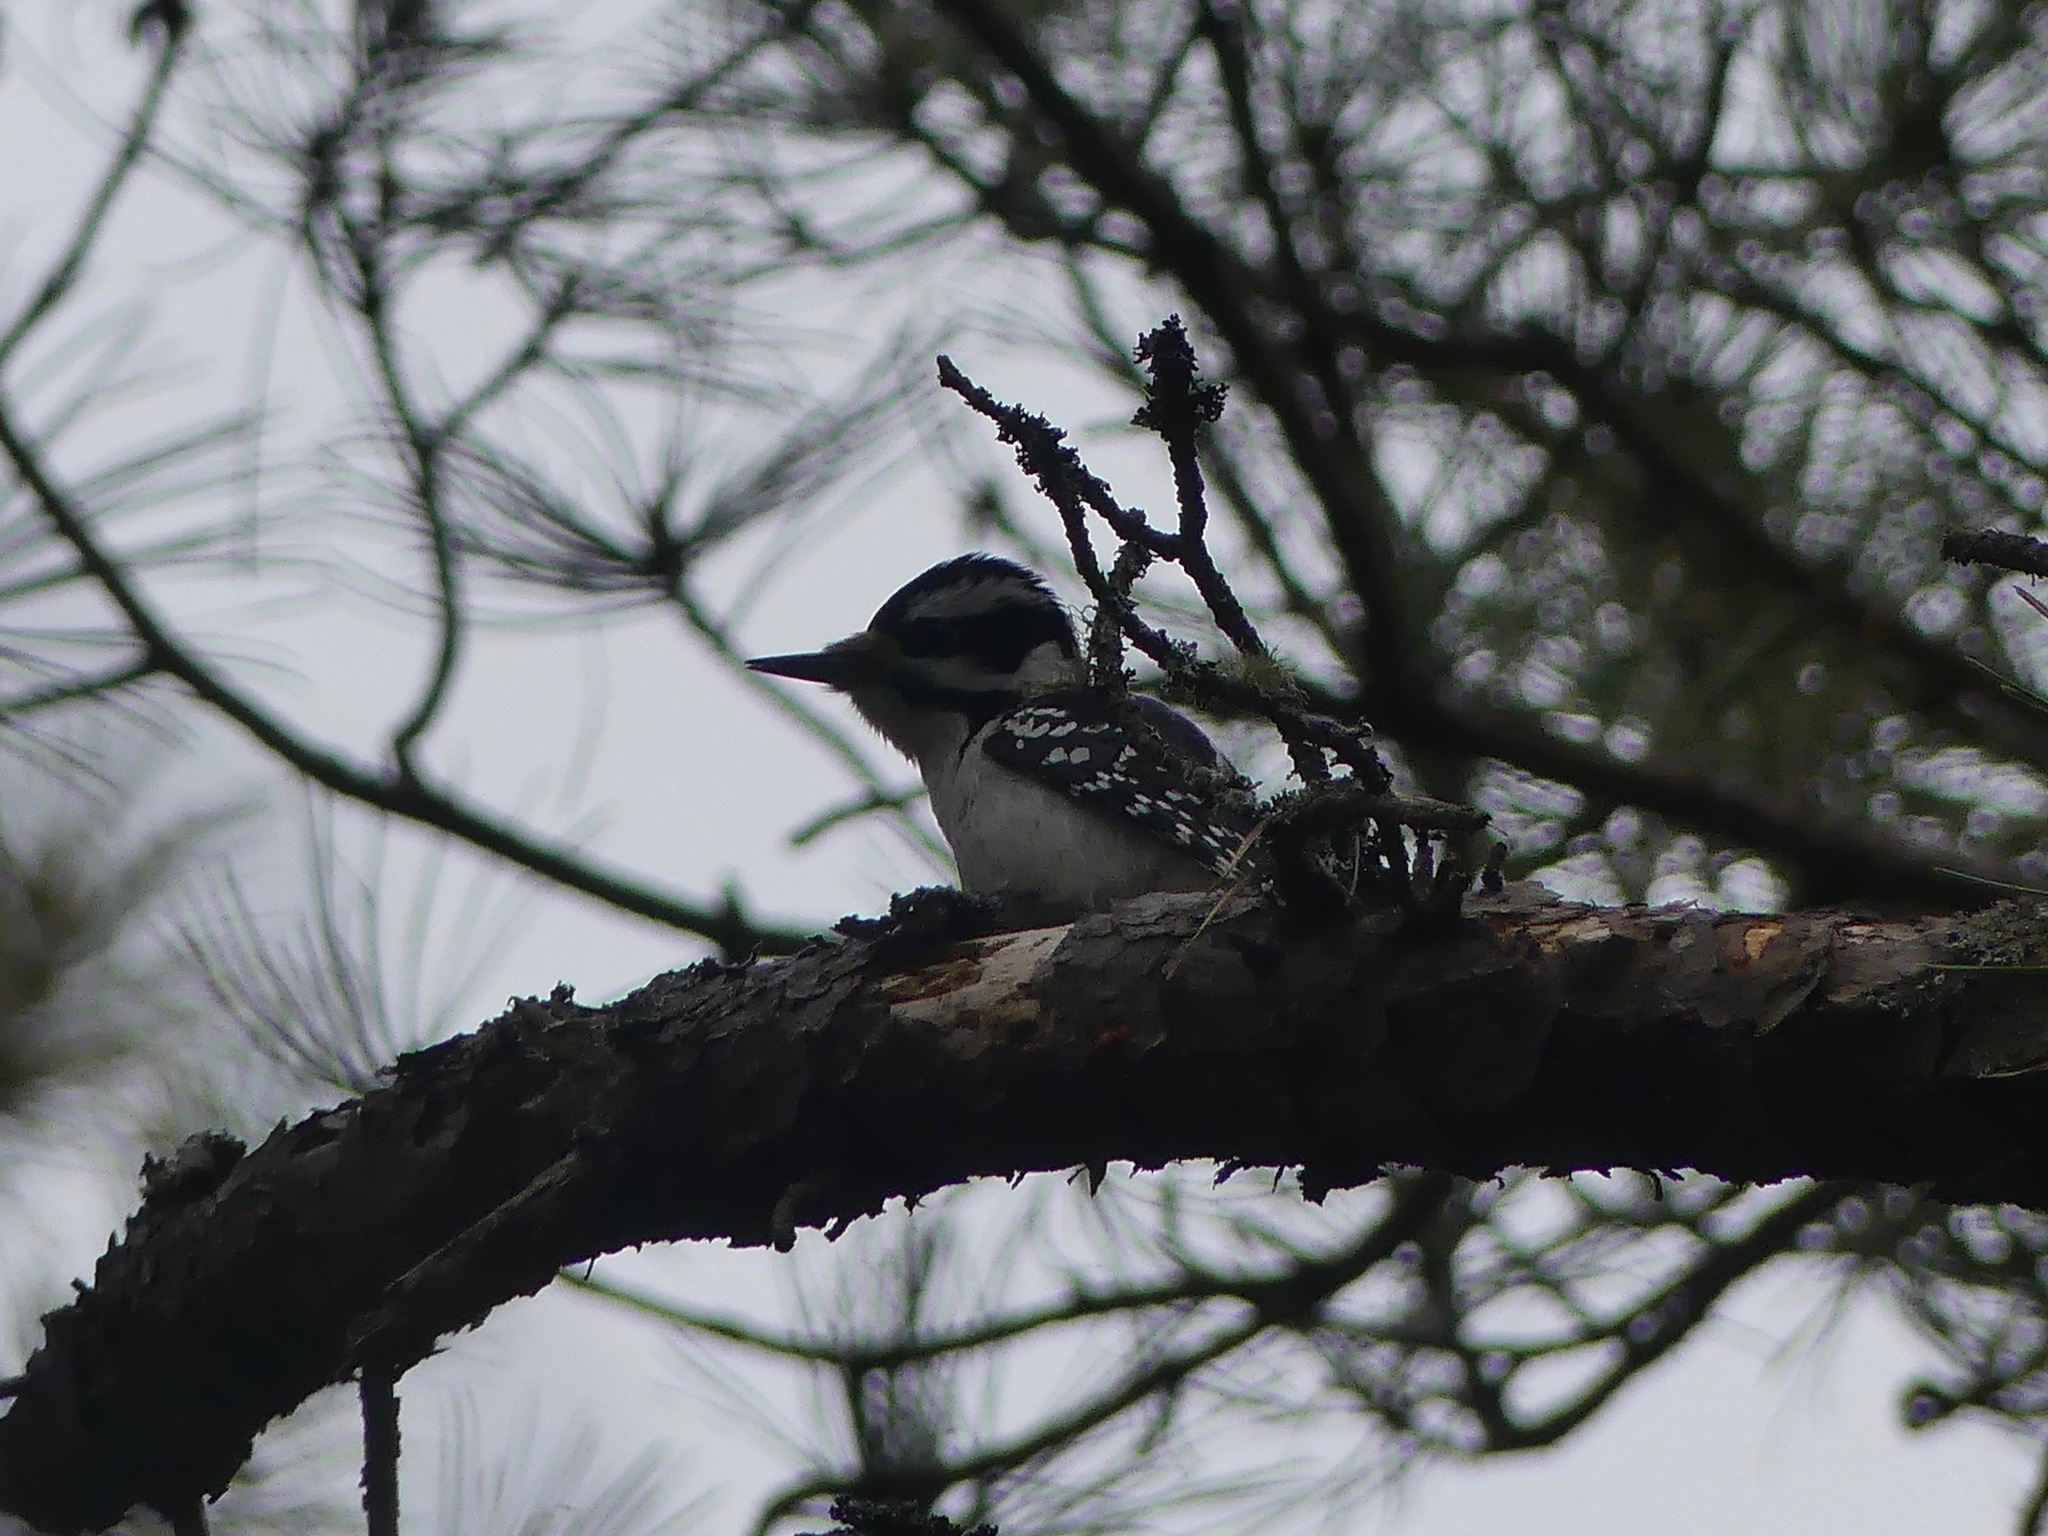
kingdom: Animalia
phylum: Chordata
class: Aves
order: Piciformes
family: Picidae
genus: Leuconotopicus
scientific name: Leuconotopicus villosus
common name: Hairy woodpecker
